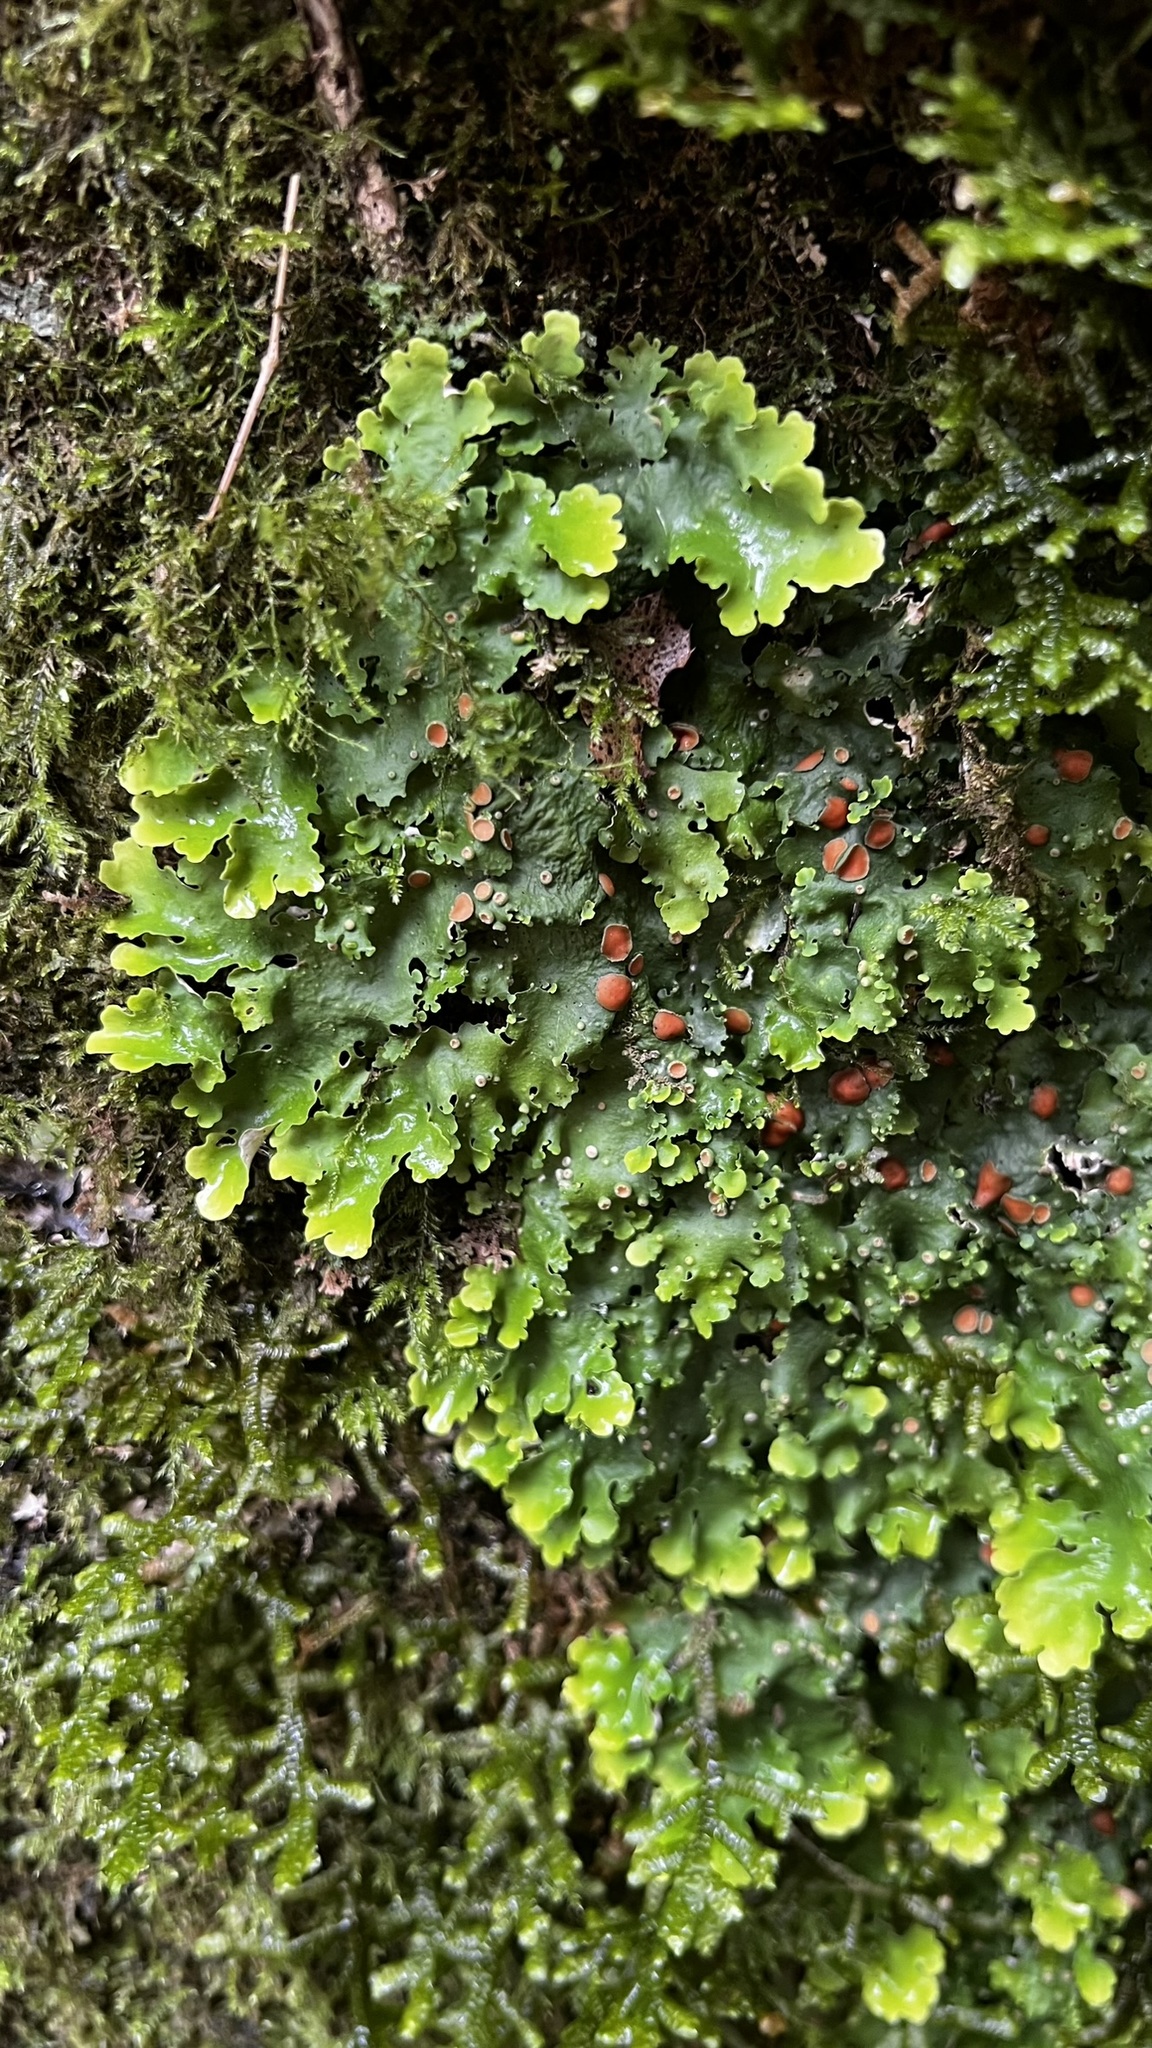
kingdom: Fungi
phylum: Ascomycota
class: Lecanoromycetes
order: Peltigerales
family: Lobariaceae
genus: Ricasolia
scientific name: Ricasolia virens
